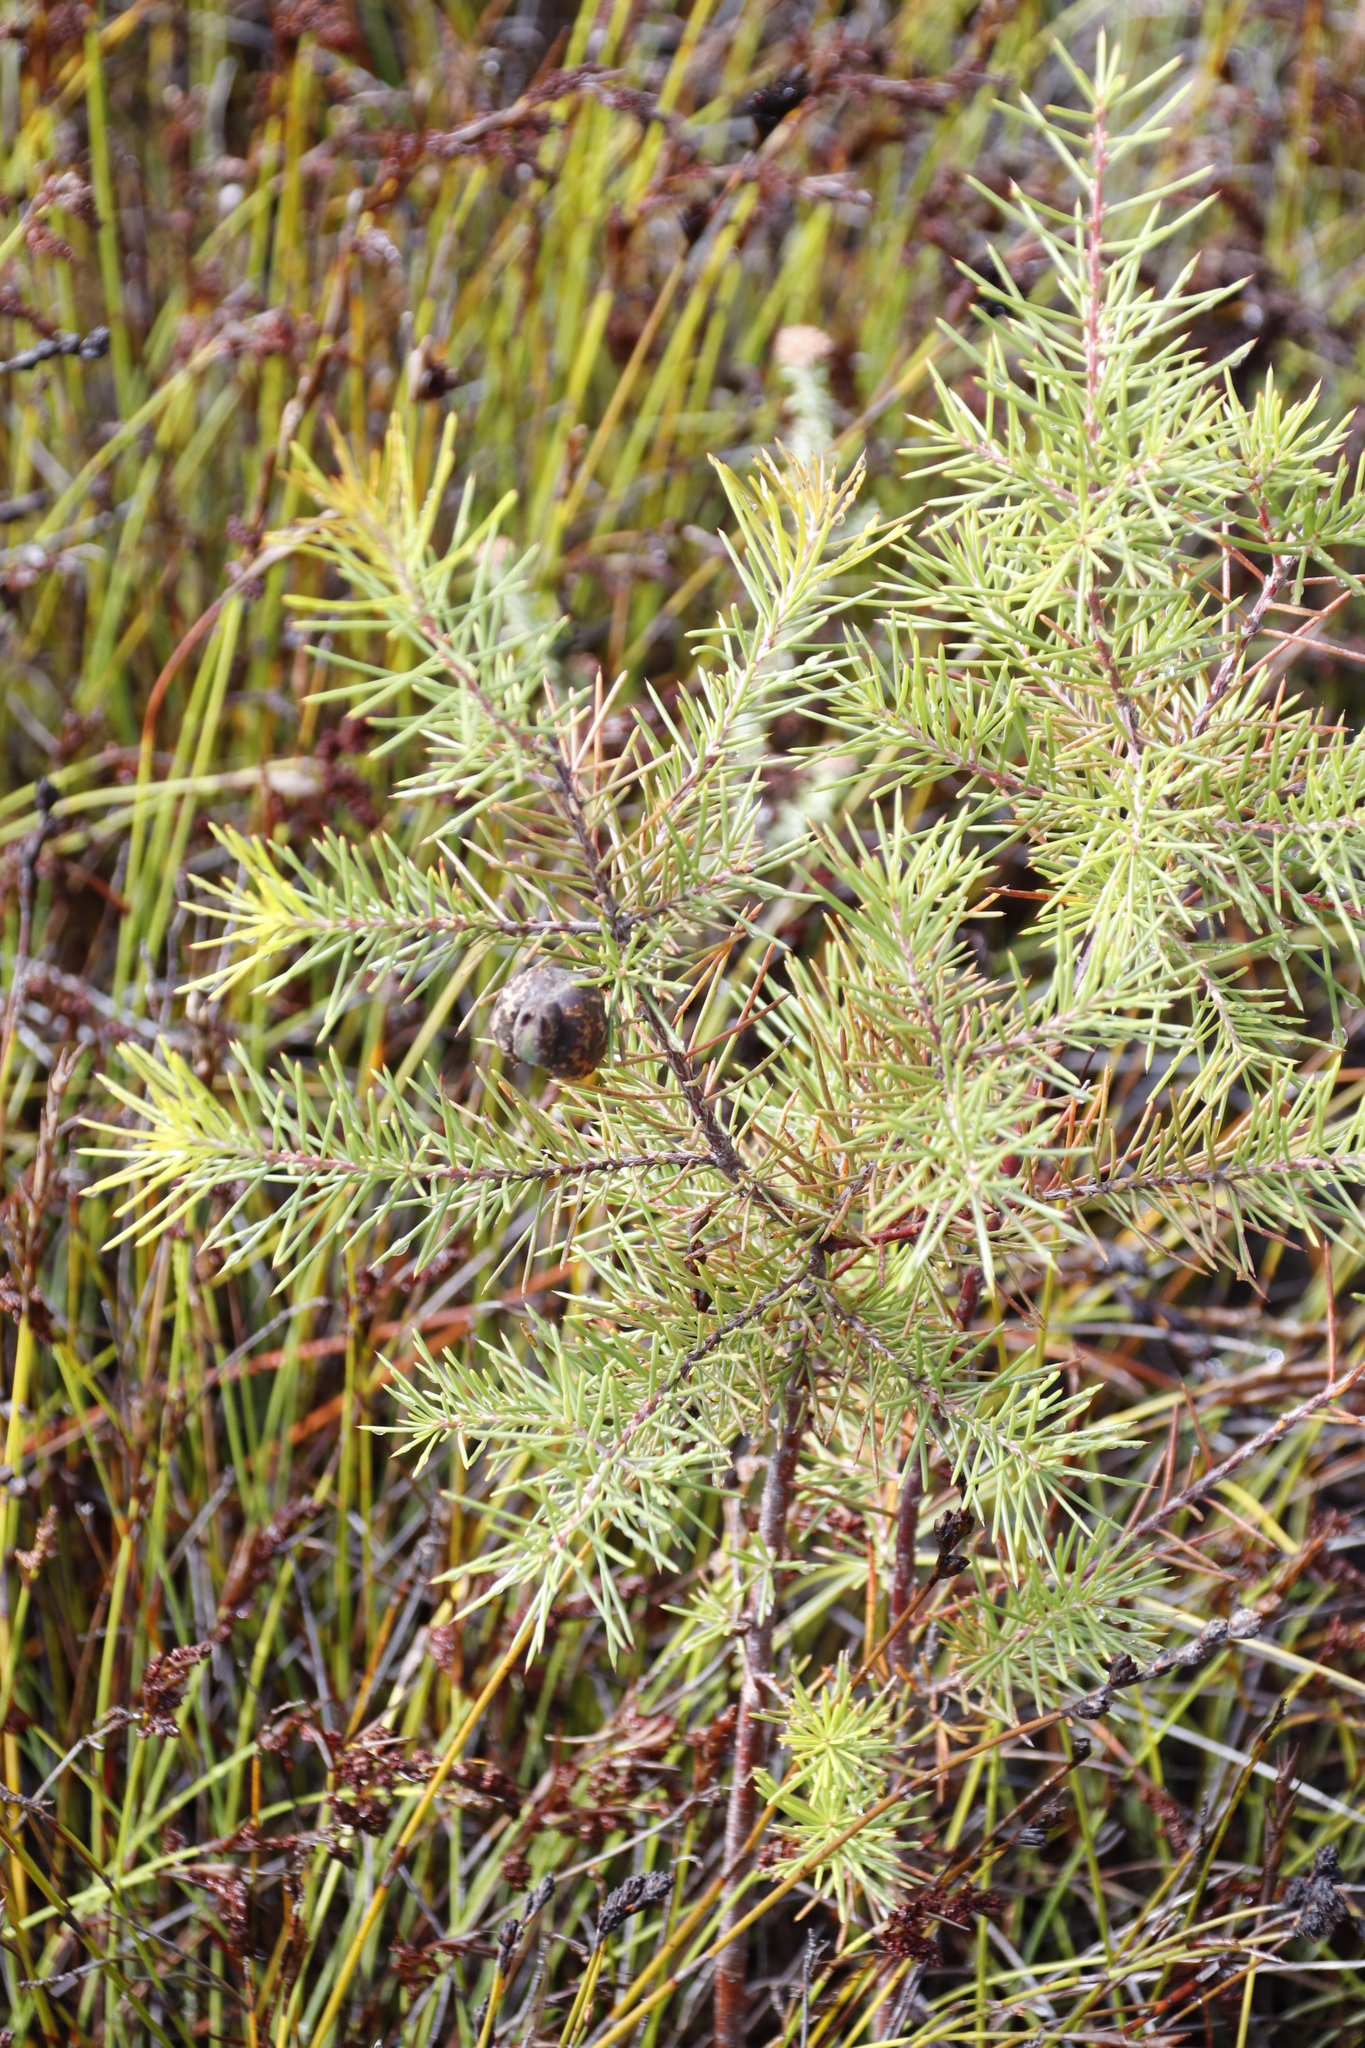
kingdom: Plantae
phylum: Tracheophyta
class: Magnoliopsida
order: Proteales
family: Proteaceae
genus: Hakea
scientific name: Hakea sericea
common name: Needle bush
